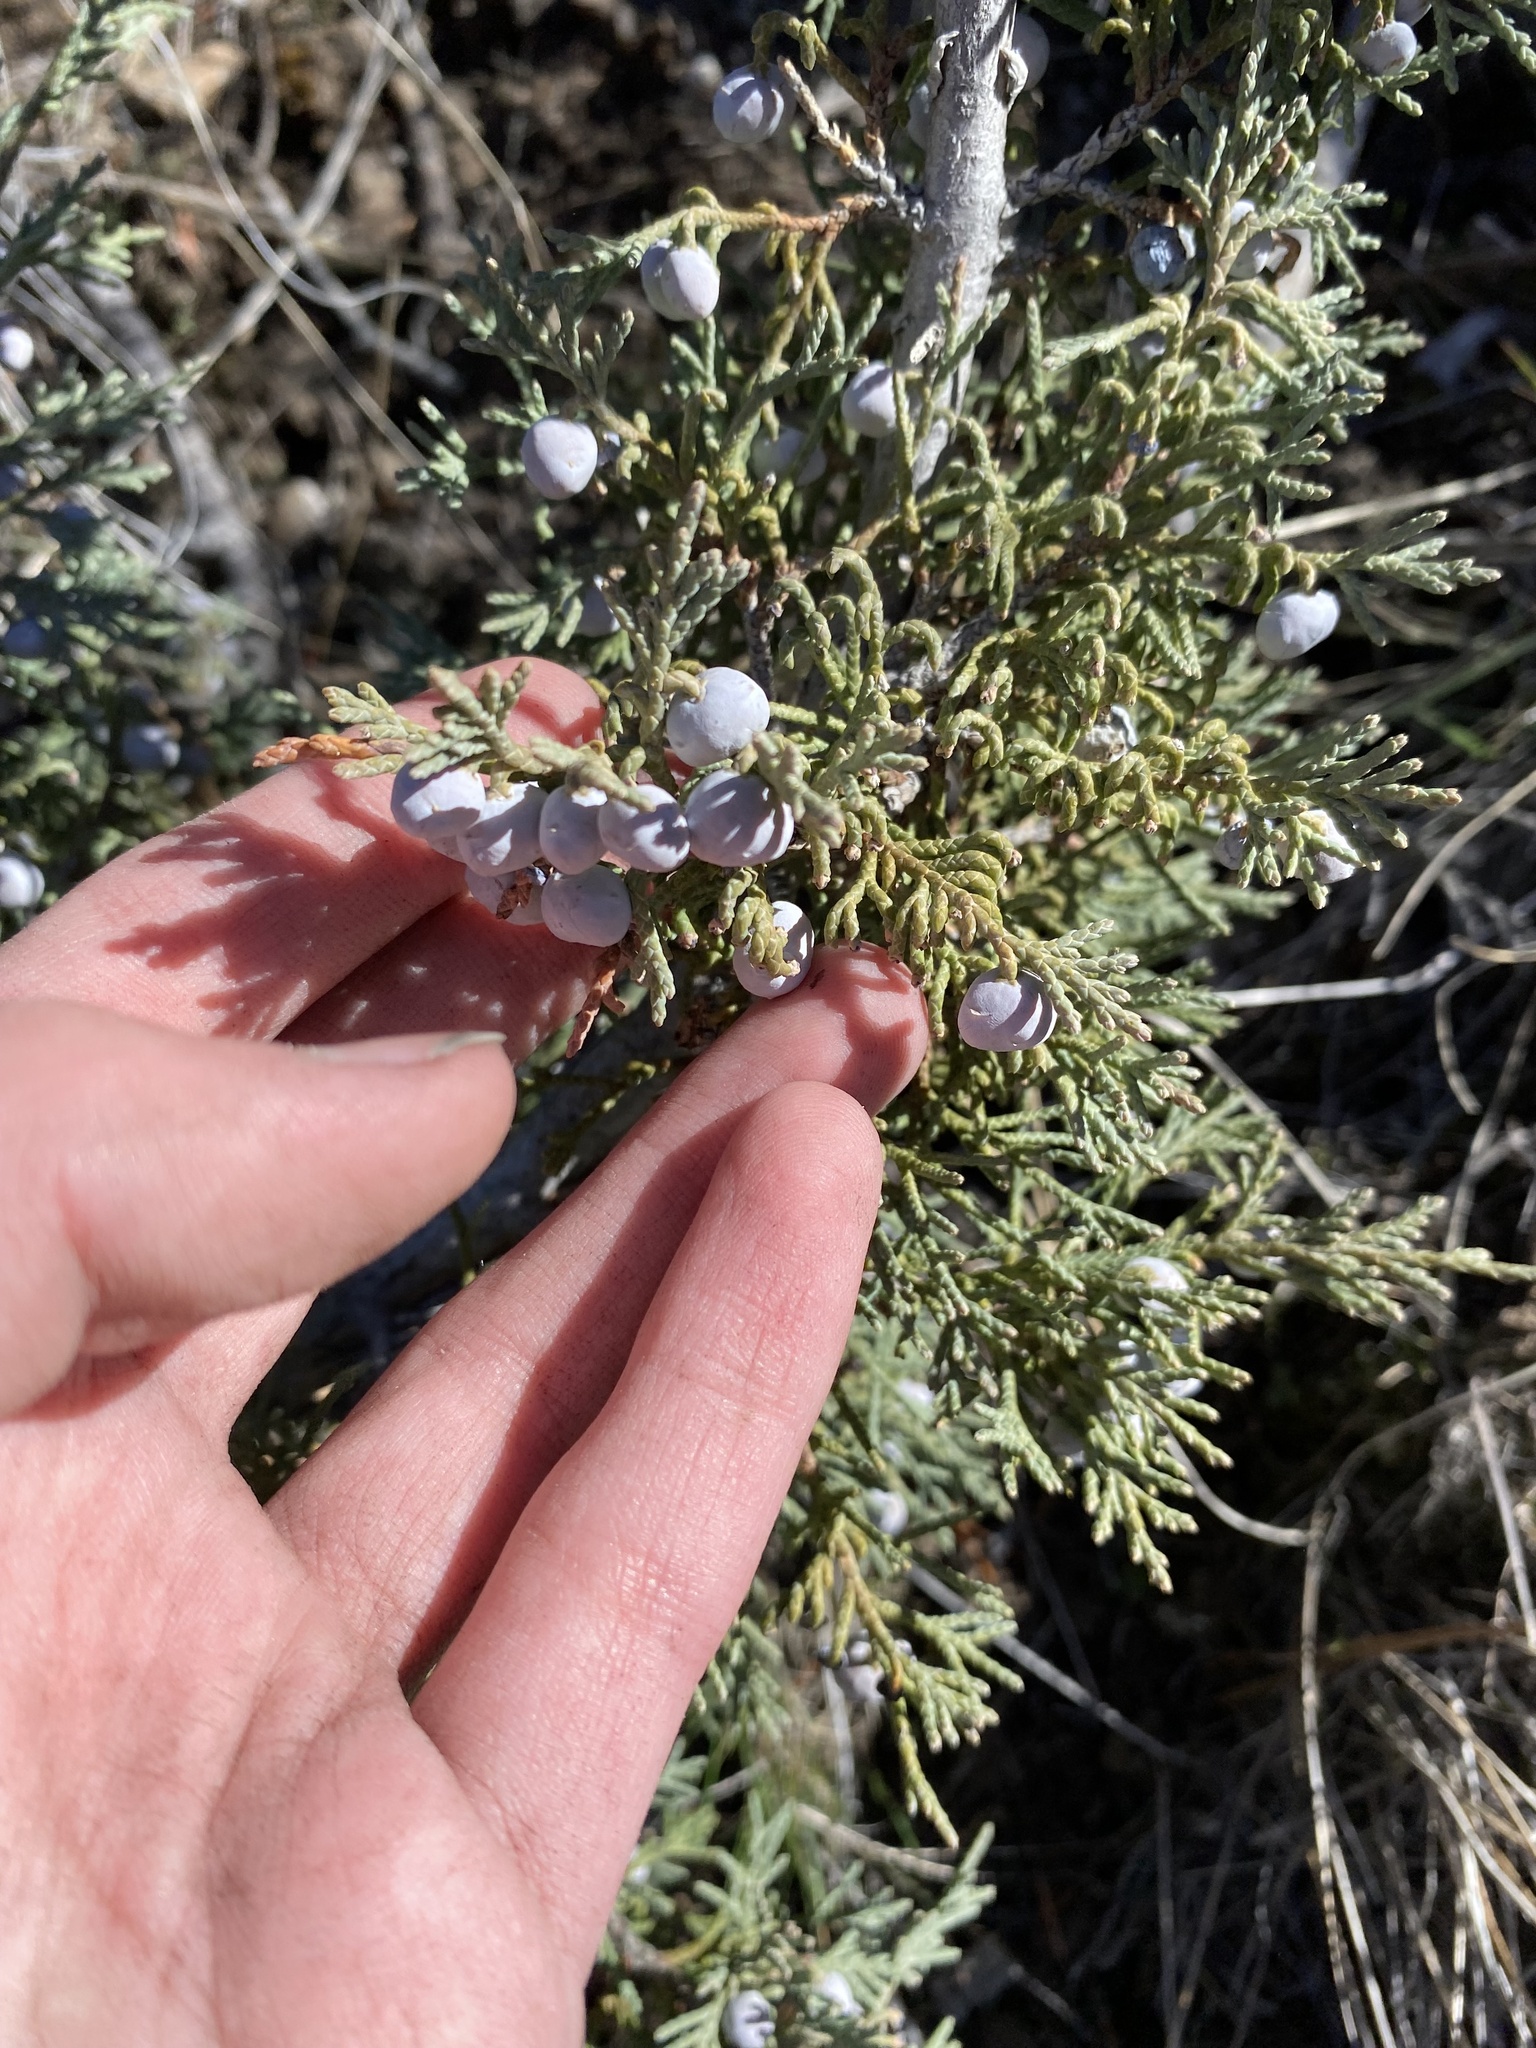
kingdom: Plantae
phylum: Tracheophyta
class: Pinopsida
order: Pinales
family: Cupressaceae
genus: Juniperus
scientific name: Juniperus scopulorum
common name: Rocky mountain juniper
